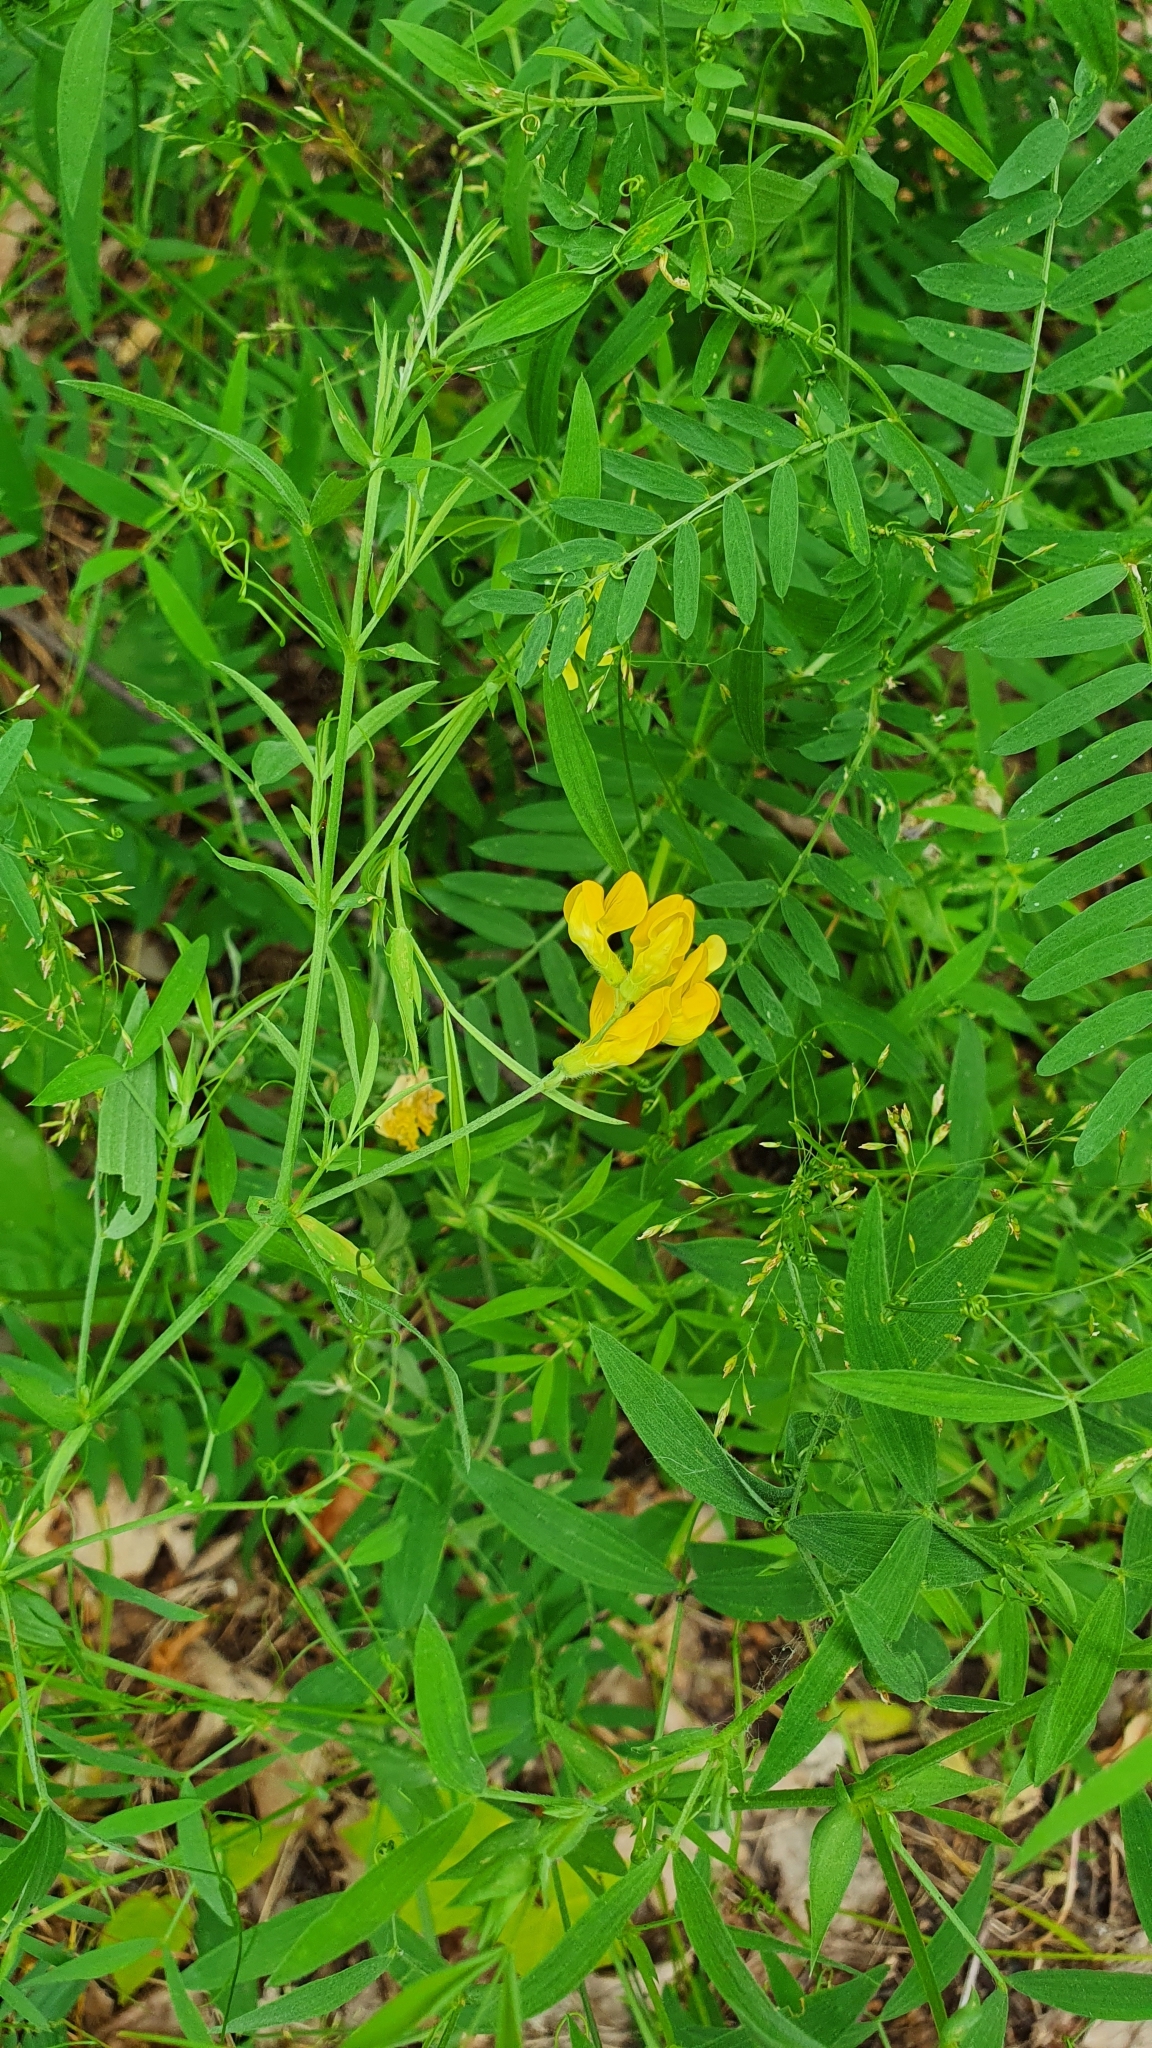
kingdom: Plantae
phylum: Tracheophyta
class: Magnoliopsida
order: Fabales
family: Fabaceae
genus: Lathyrus
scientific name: Lathyrus pratensis
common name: Meadow vetchling
